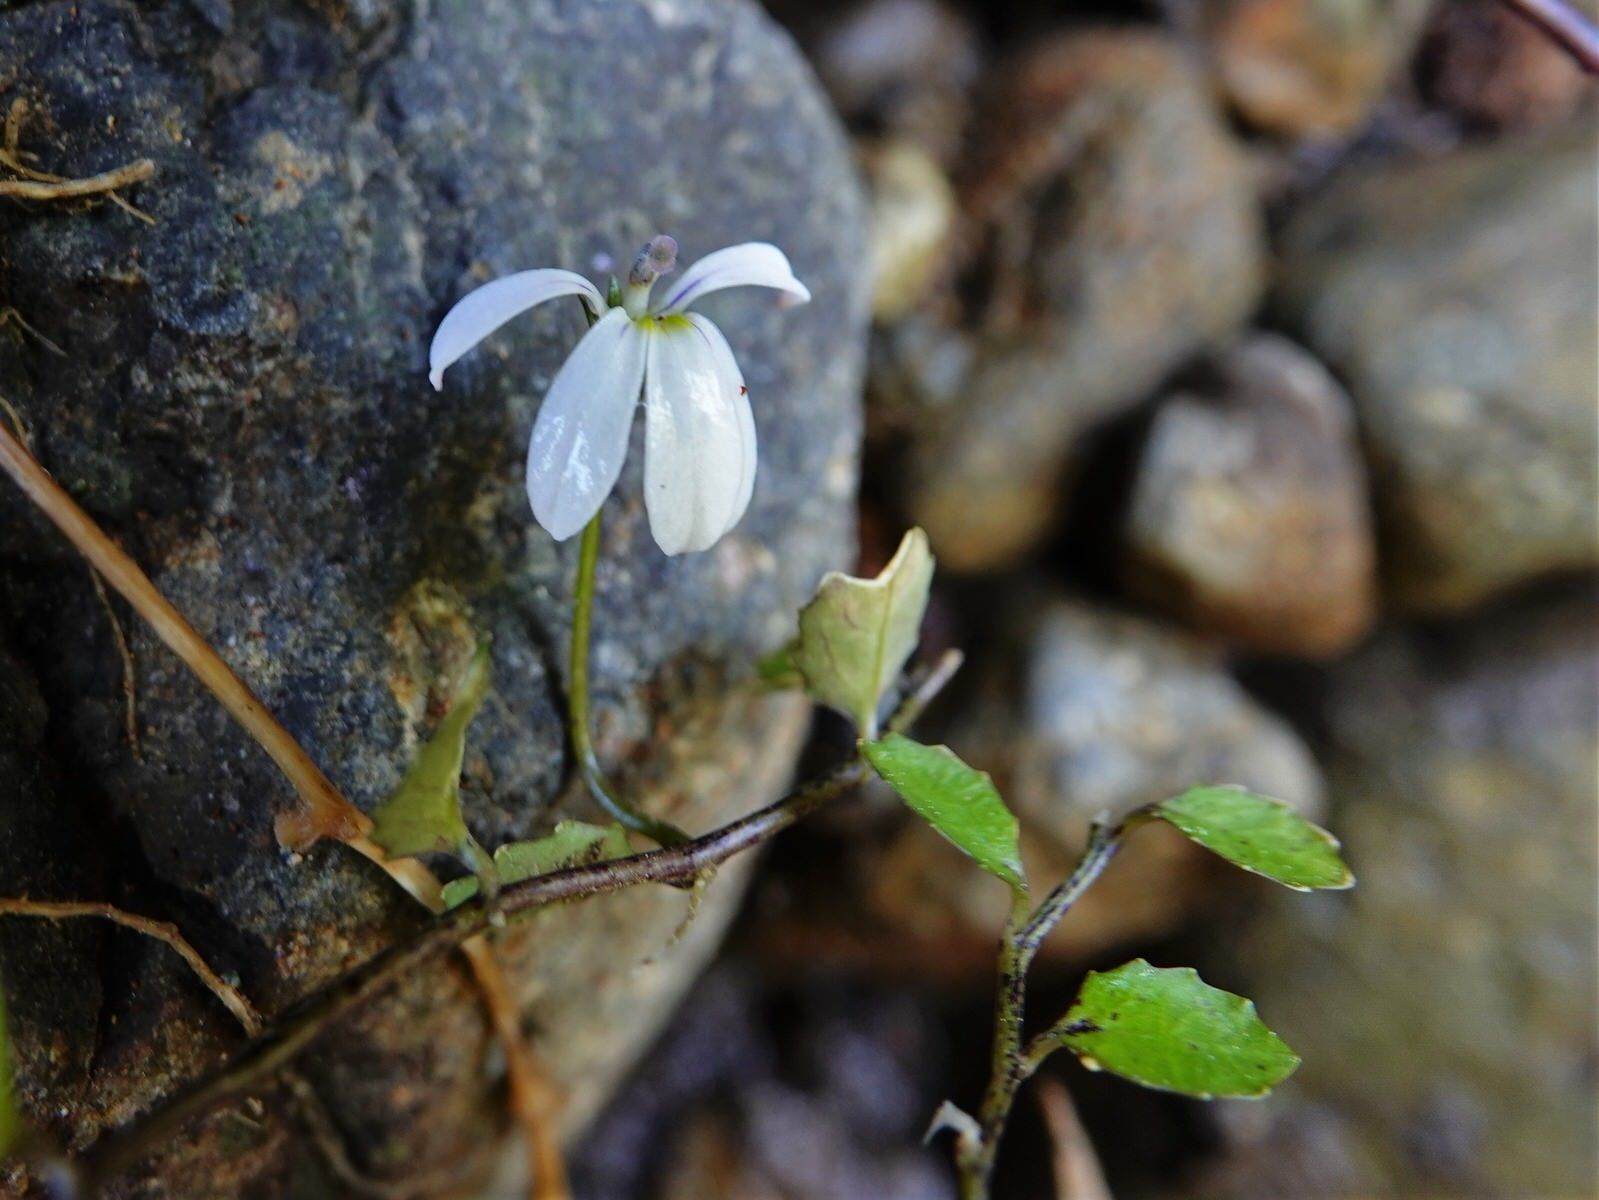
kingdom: Plantae
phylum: Tracheophyta
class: Magnoliopsida
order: Asterales
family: Campanulaceae
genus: Lobelia
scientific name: Lobelia angulata
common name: Lawn lobelia
